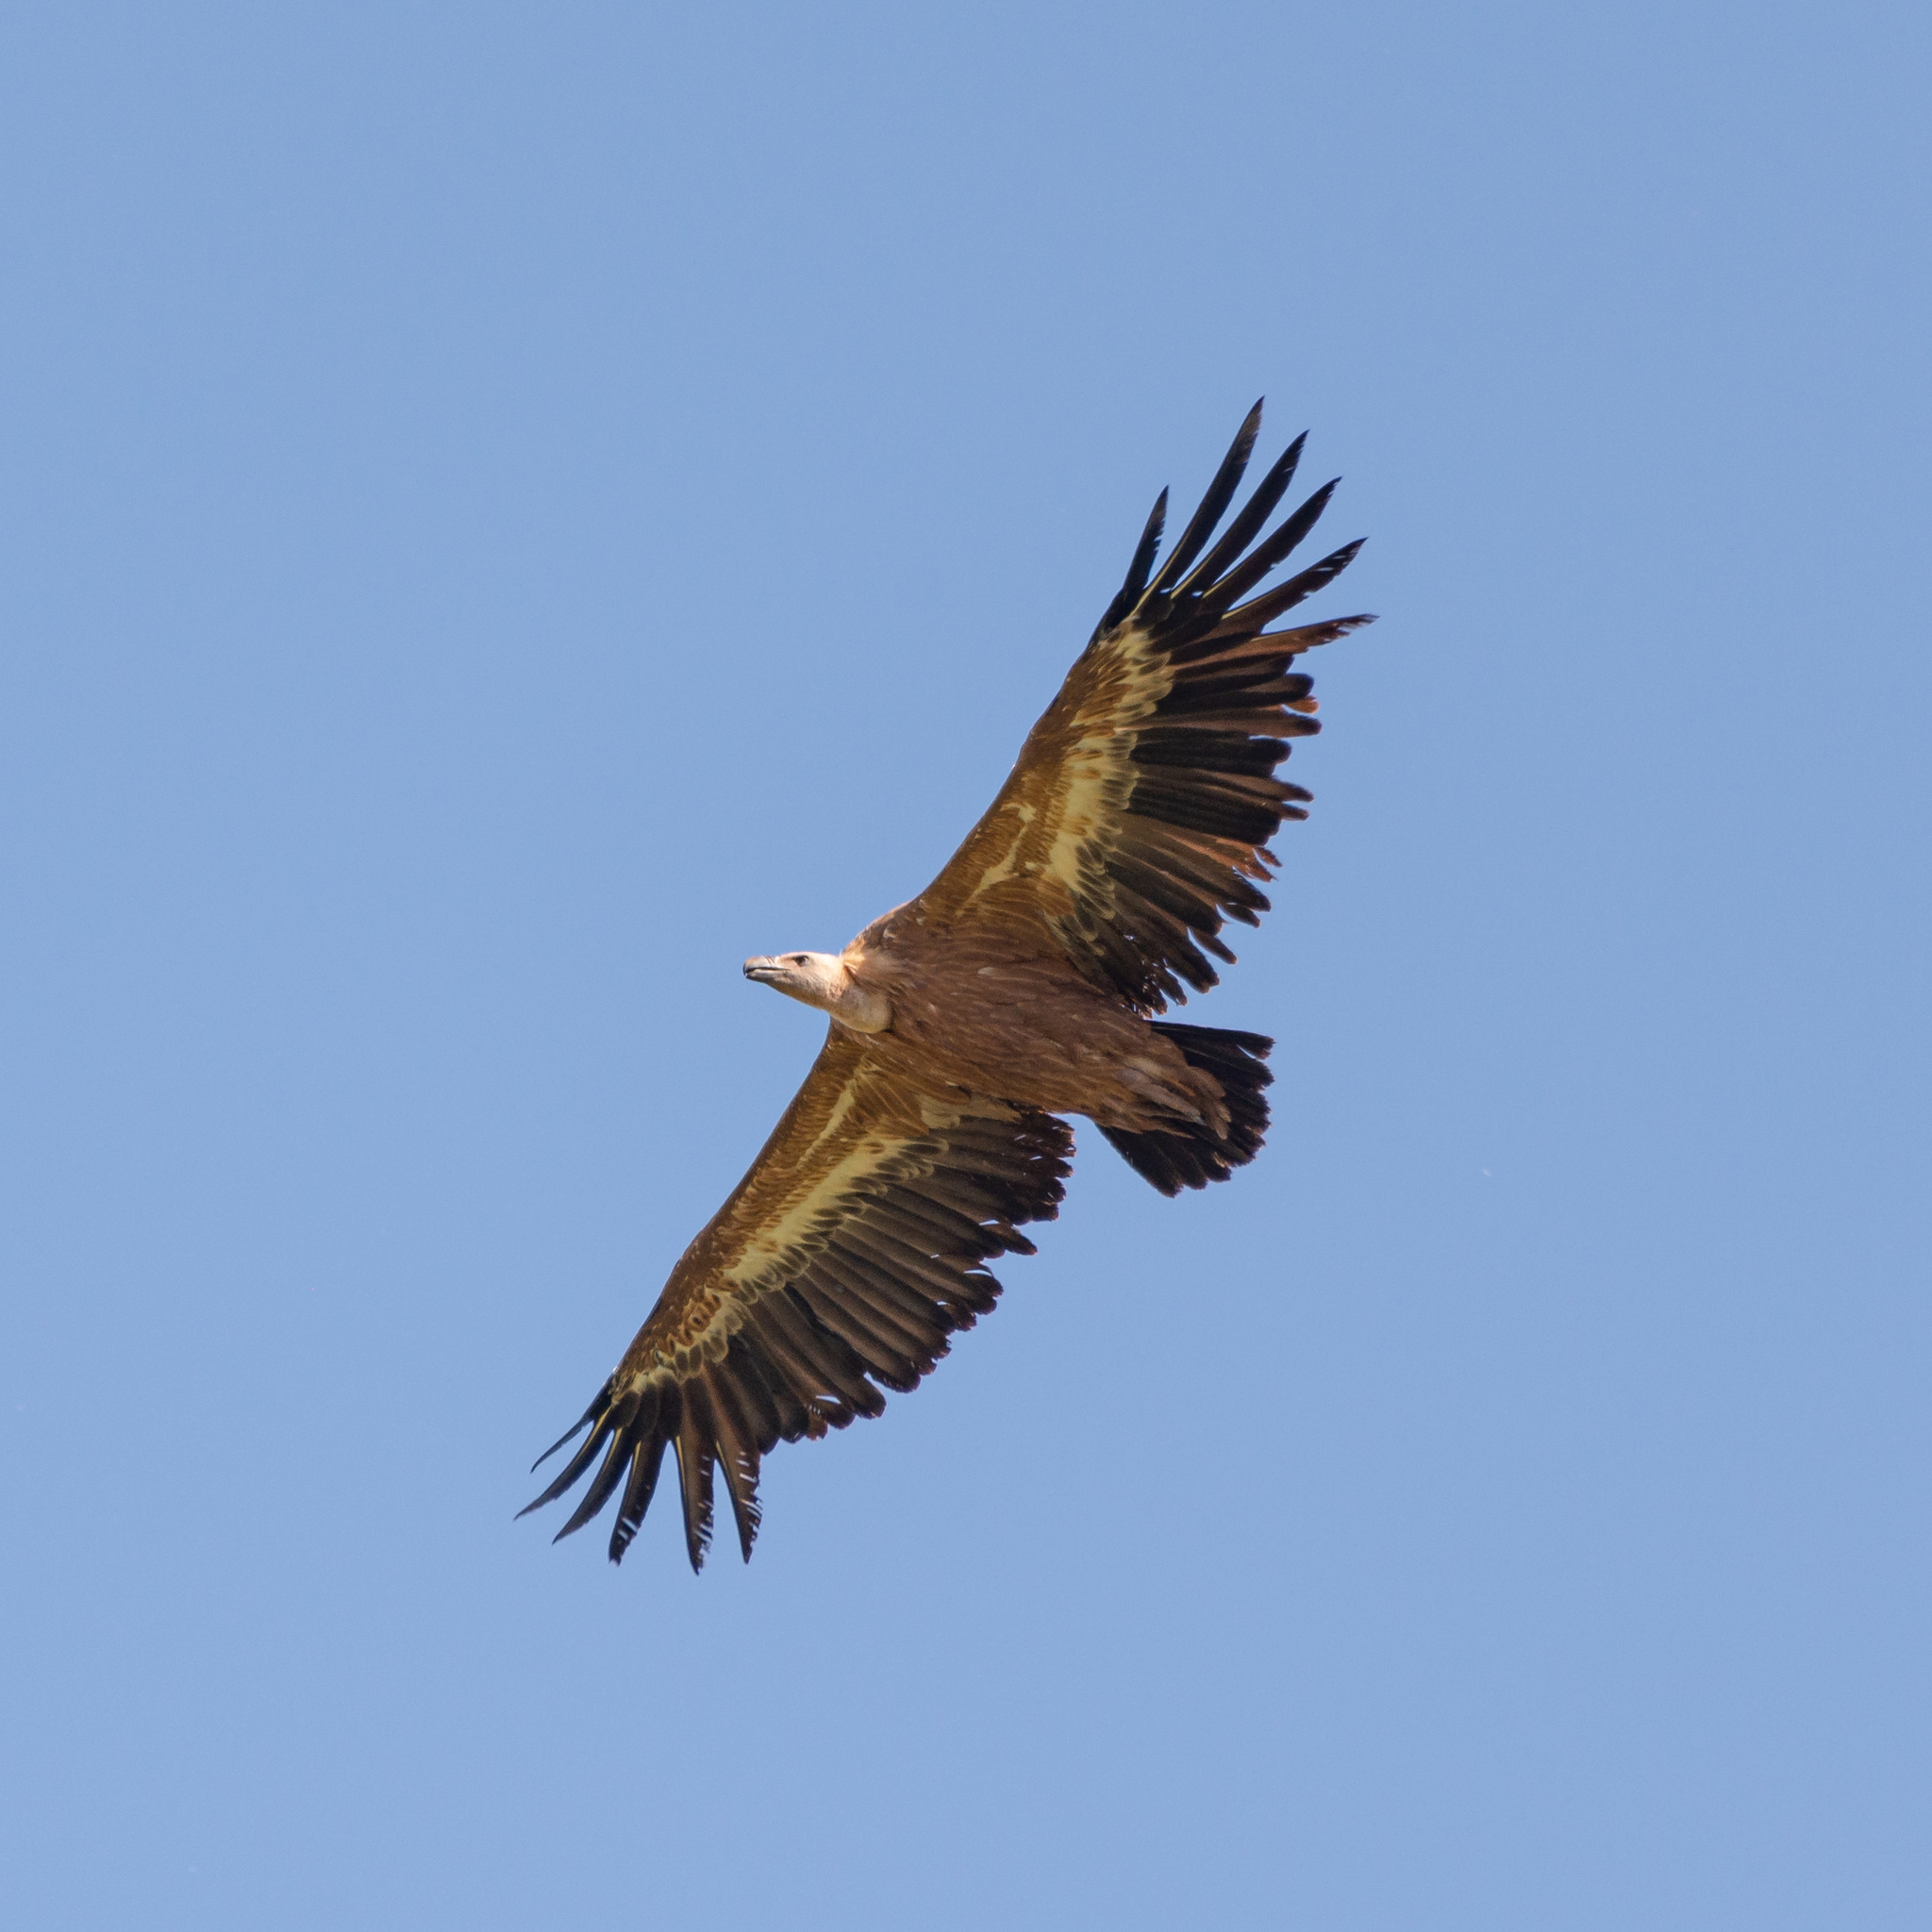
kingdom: Animalia
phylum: Chordata
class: Aves
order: Accipitriformes
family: Accipitridae
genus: Gyps
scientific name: Gyps fulvus
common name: Griffon vulture
